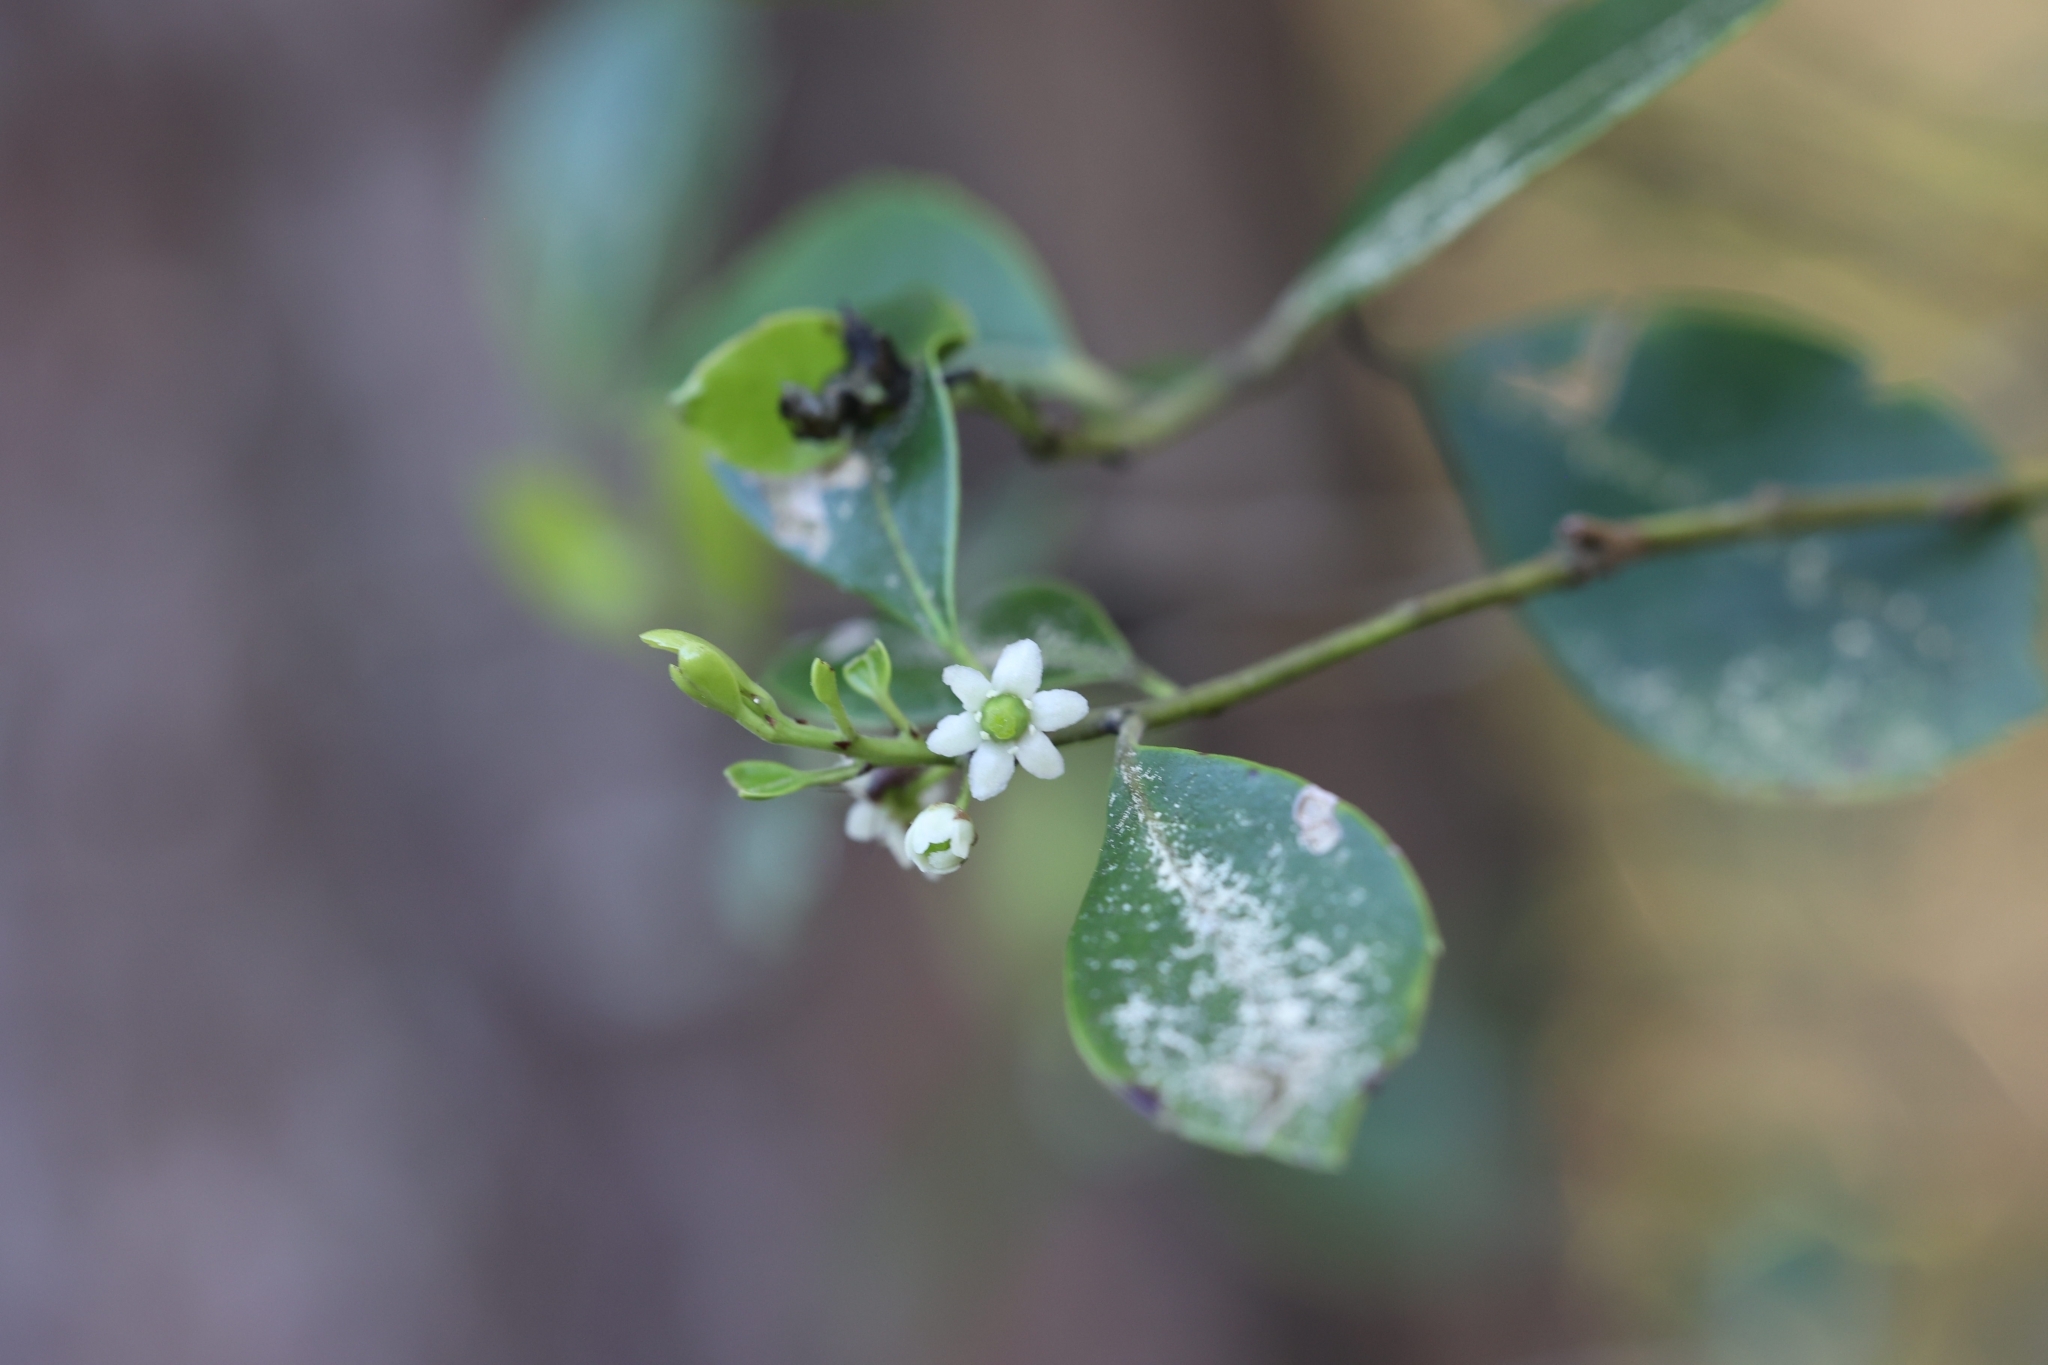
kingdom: Plantae
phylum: Tracheophyta
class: Magnoliopsida
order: Aquifoliales
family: Aquifoliaceae
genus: Ilex
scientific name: Ilex glabra
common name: Bitter gallberry
